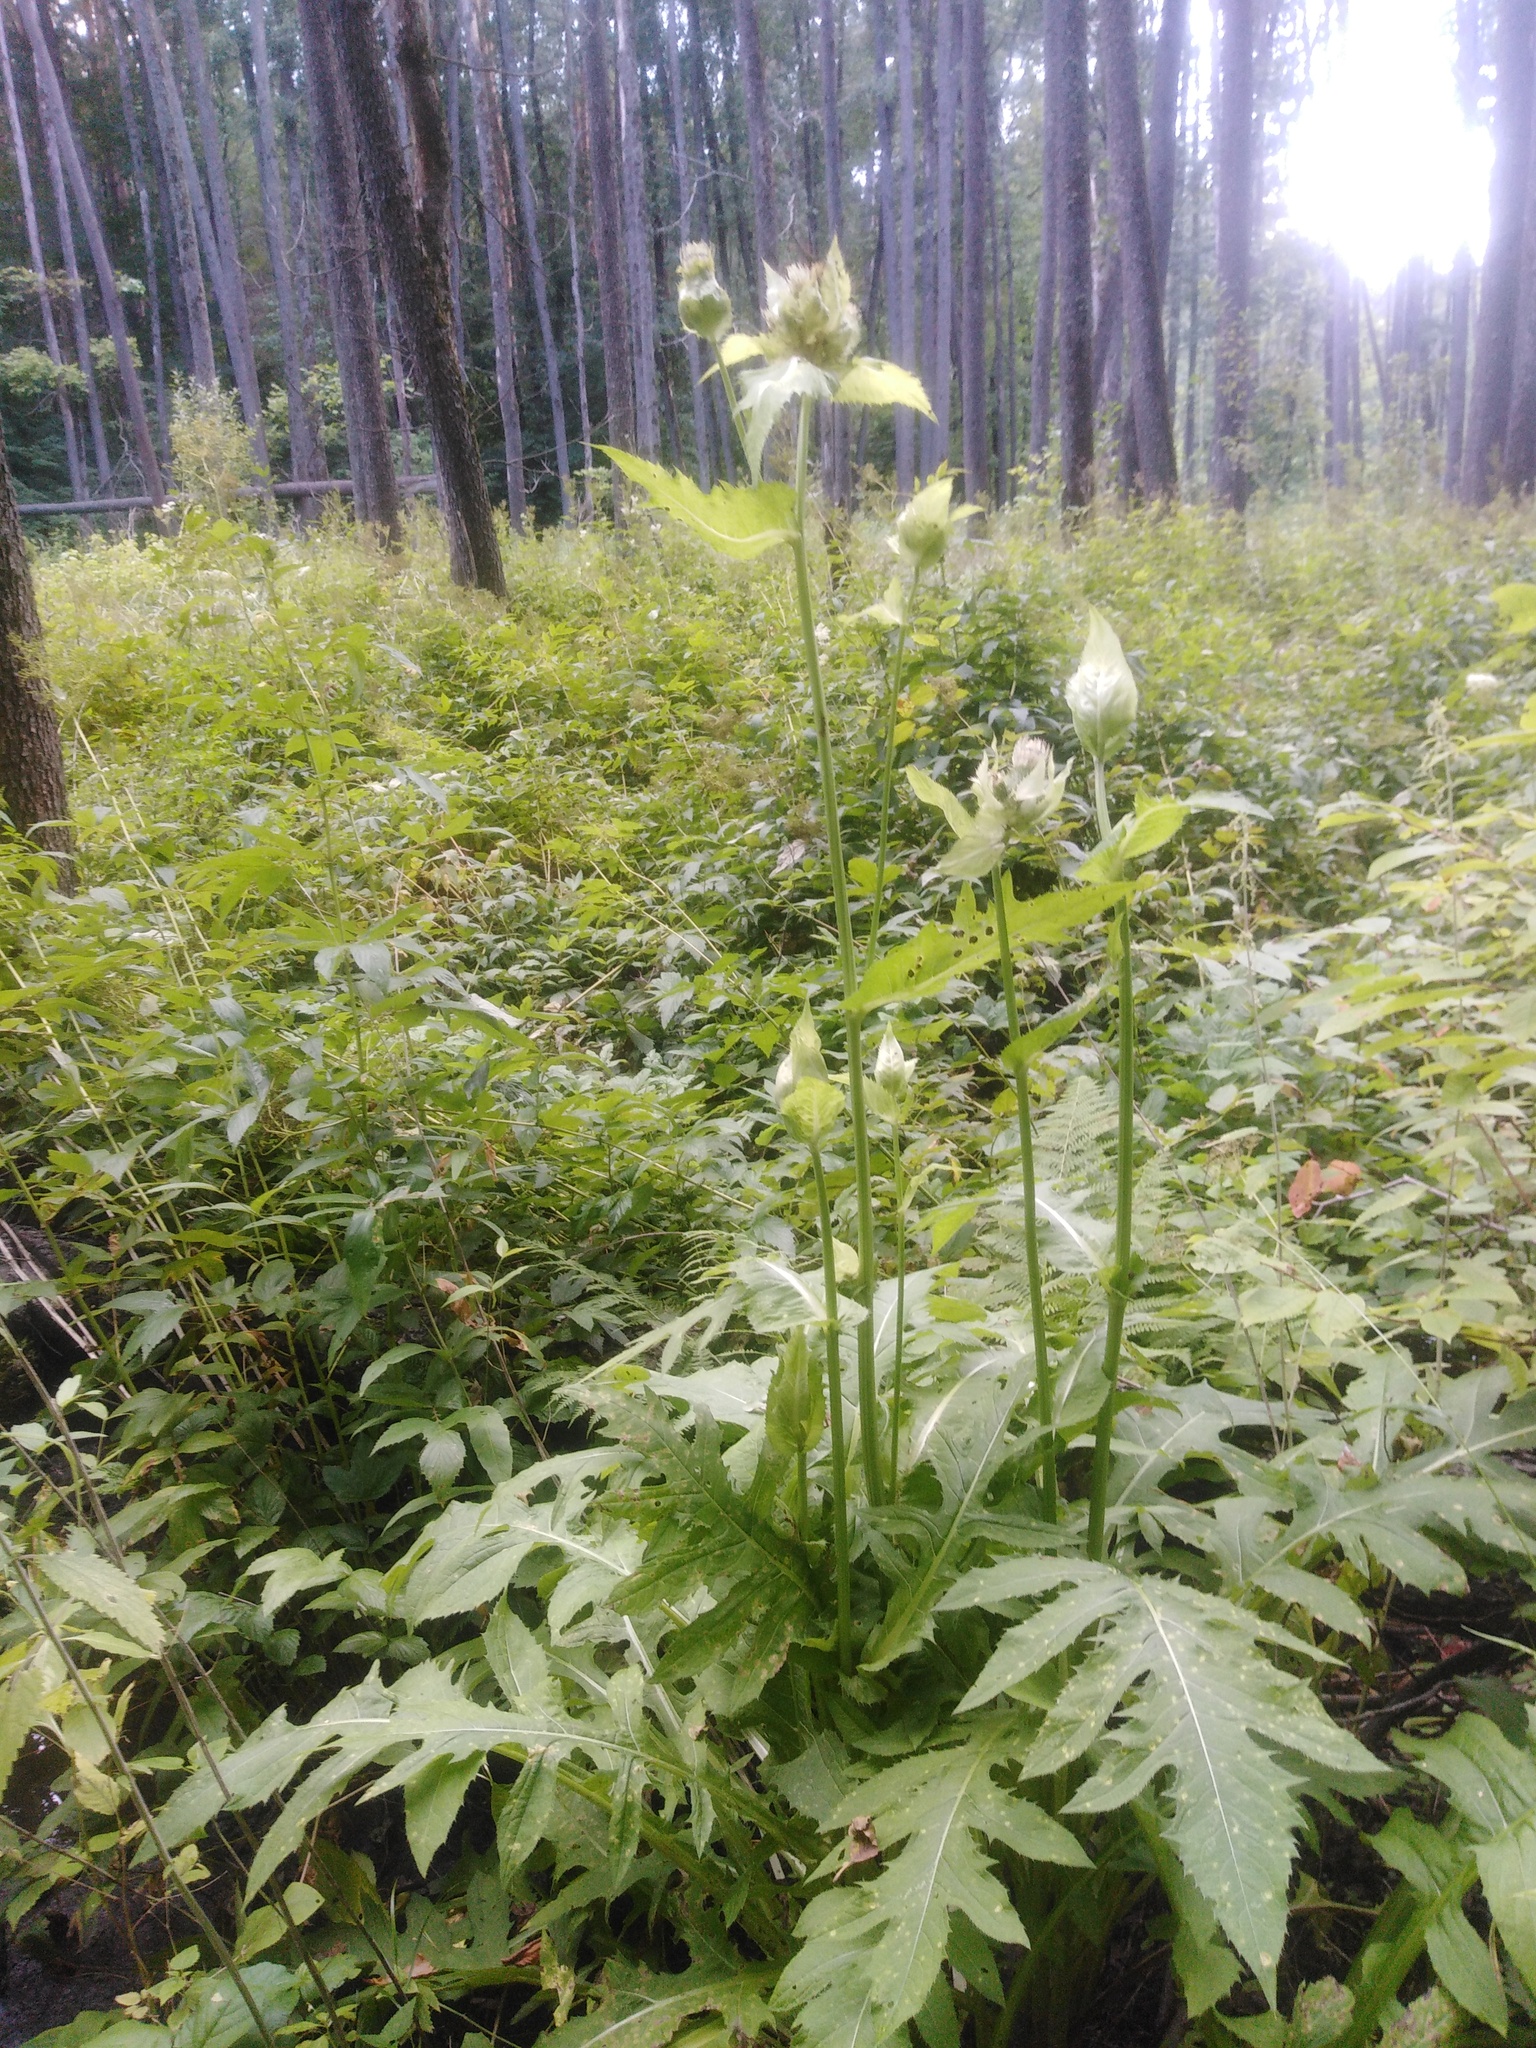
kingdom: Plantae
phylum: Tracheophyta
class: Magnoliopsida
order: Asterales
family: Asteraceae
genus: Cirsium
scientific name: Cirsium oleraceum
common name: Cabbage thistle
